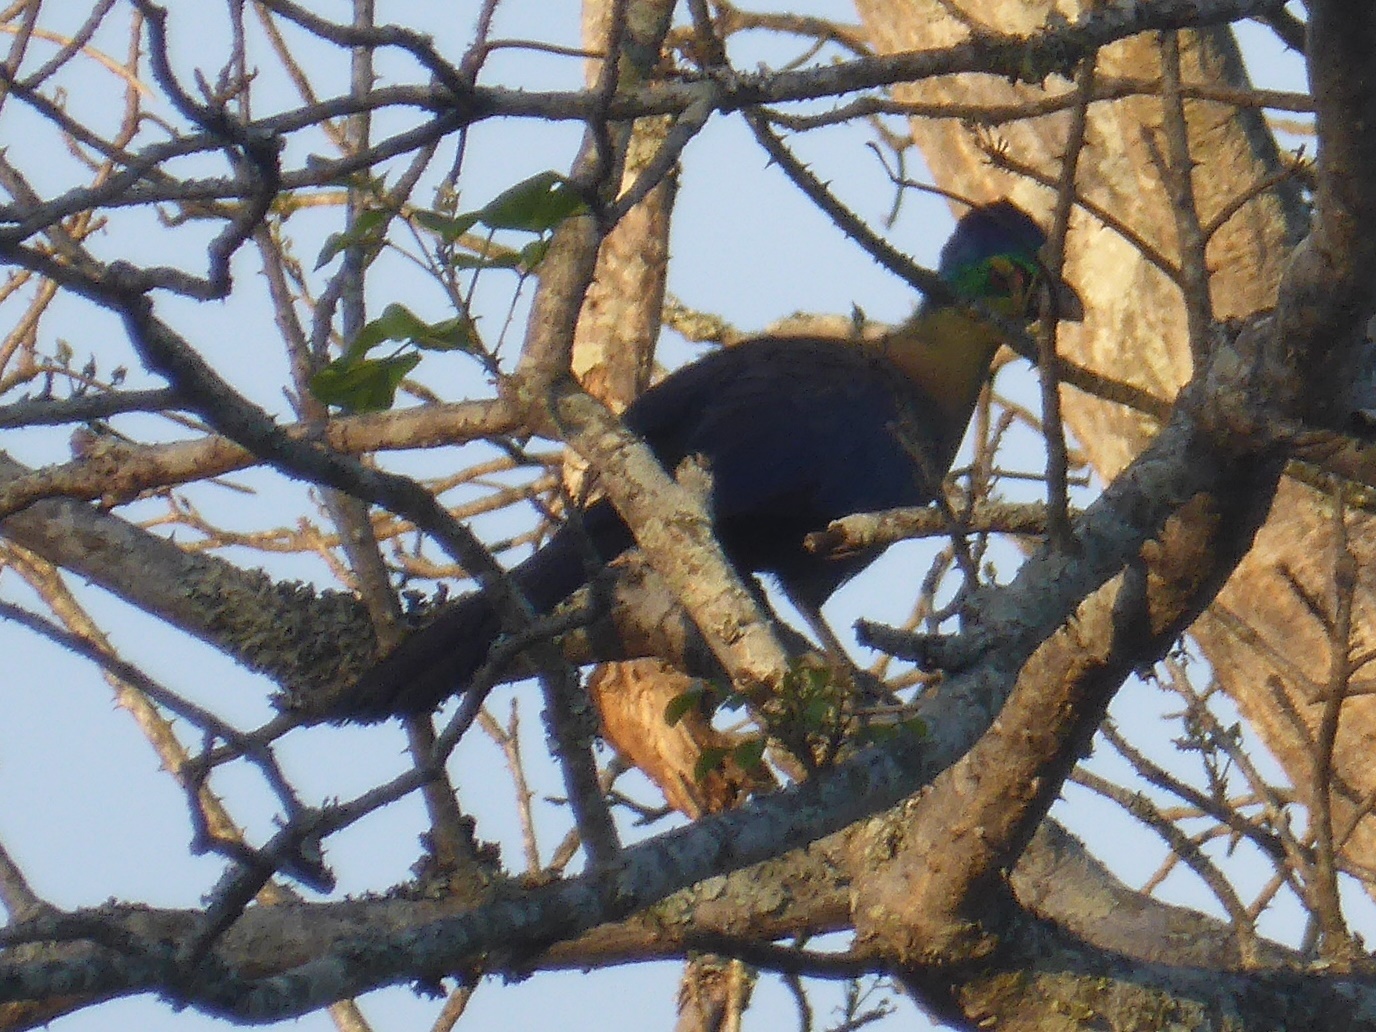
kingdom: Animalia
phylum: Chordata
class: Aves
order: Musophagiformes
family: Musophagidae
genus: Tauraco
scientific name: Tauraco porphyreolophus
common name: Purple-crested turaco
